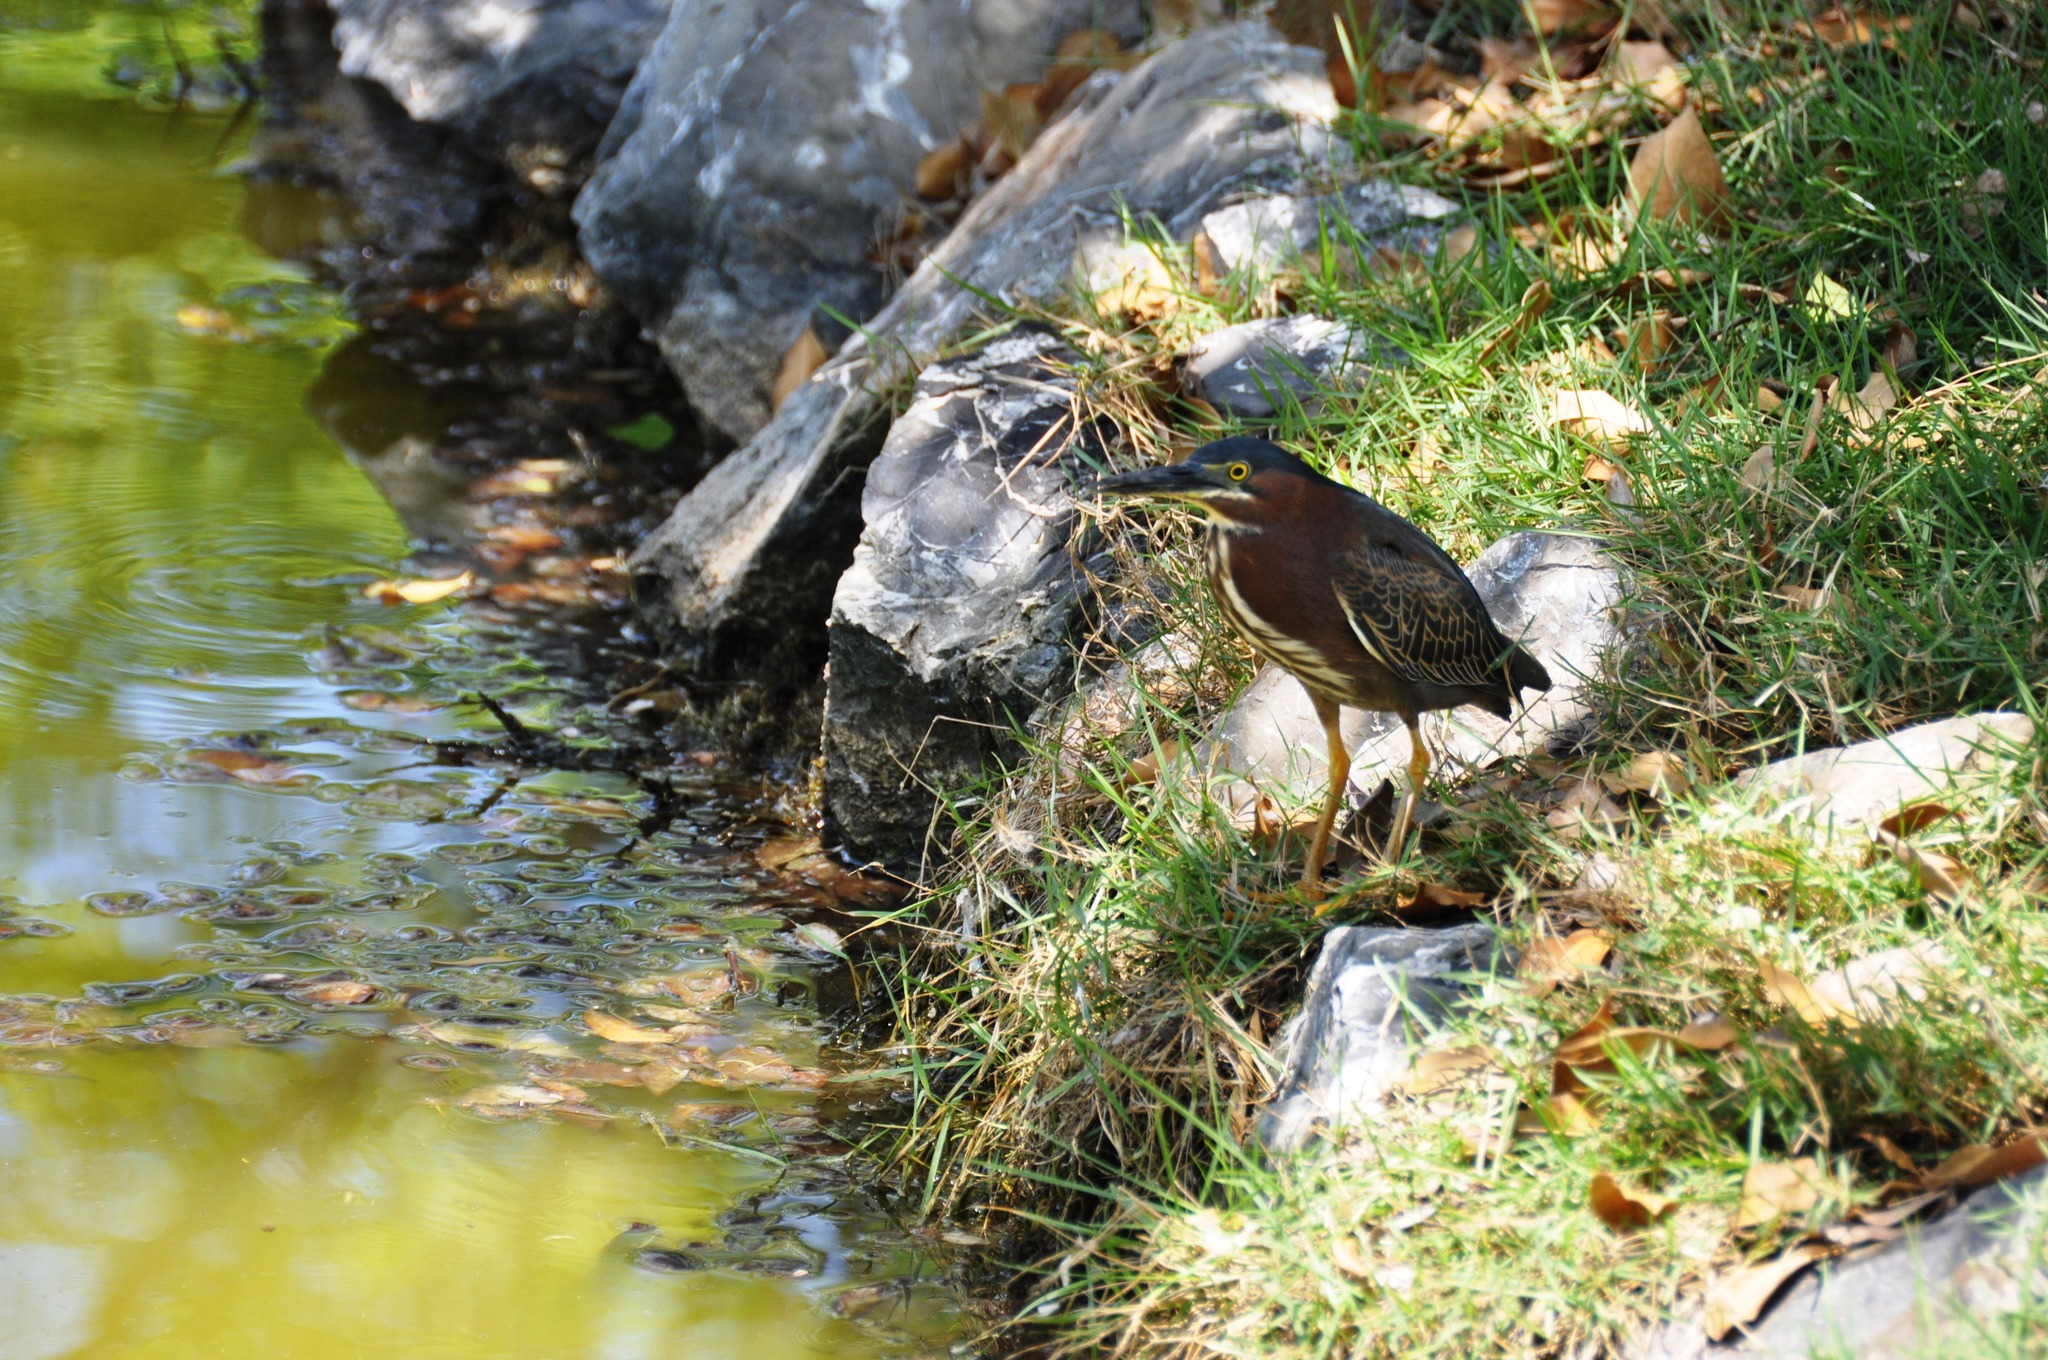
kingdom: Animalia
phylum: Chordata
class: Aves
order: Pelecaniformes
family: Ardeidae
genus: Butorides
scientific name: Butorides virescens
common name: Green heron
